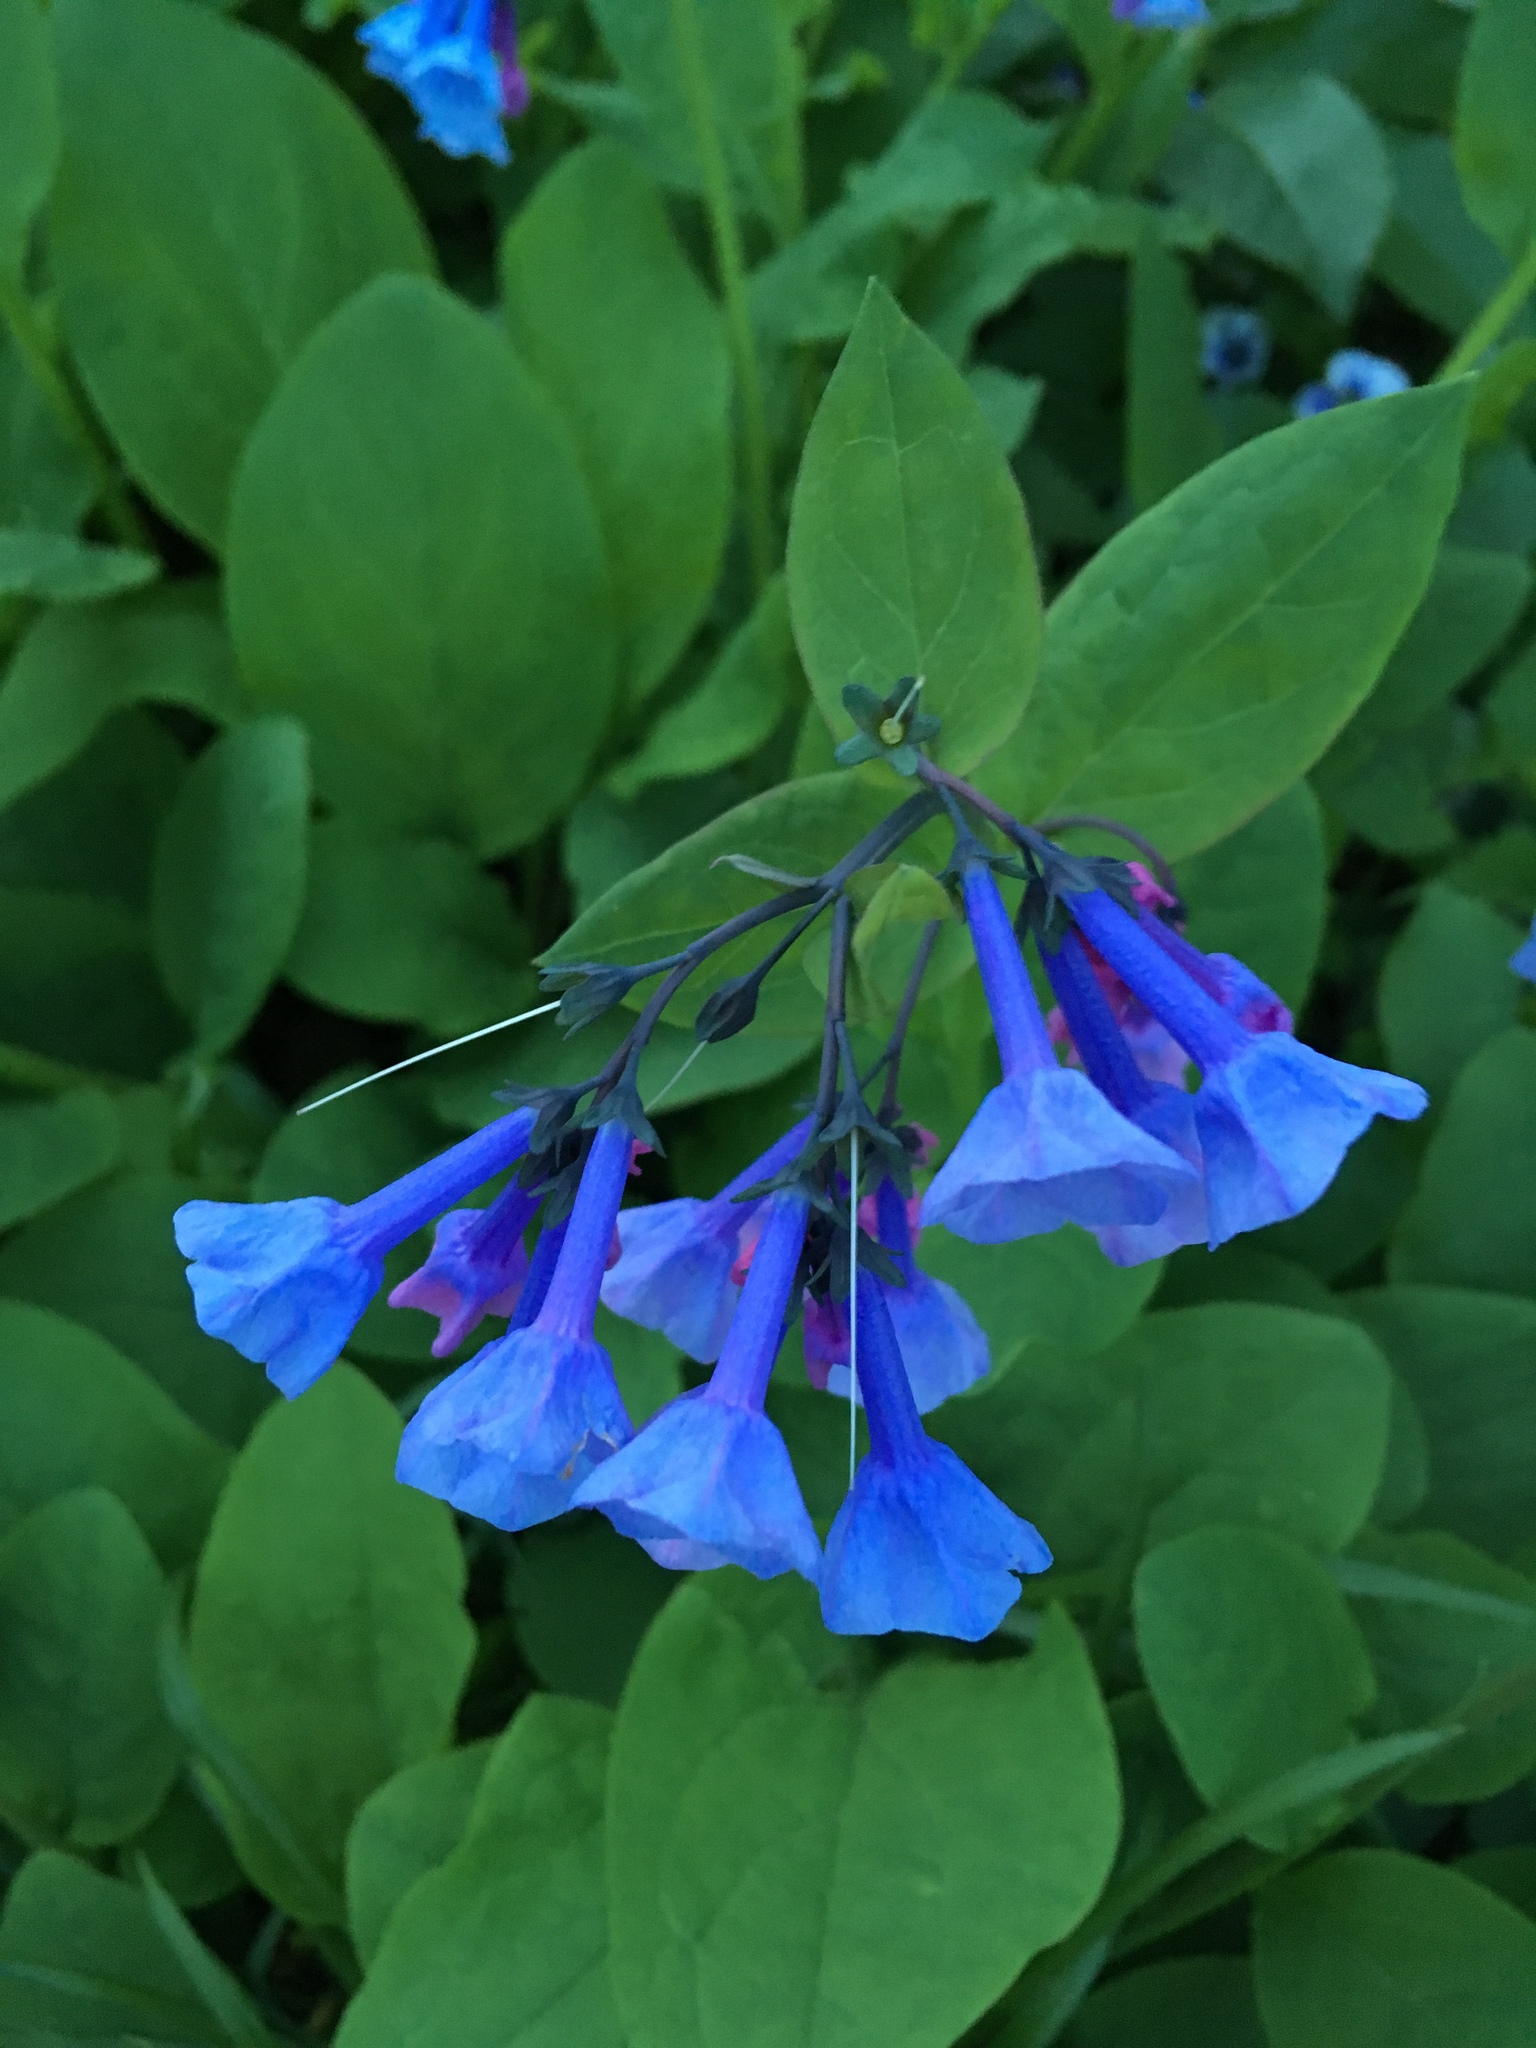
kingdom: Plantae
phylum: Tracheophyta
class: Magnoliopsida
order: Boraginales
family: Boraginaceae
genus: Mertensia
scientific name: Mertensia virginica
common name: Virginia bluebells
